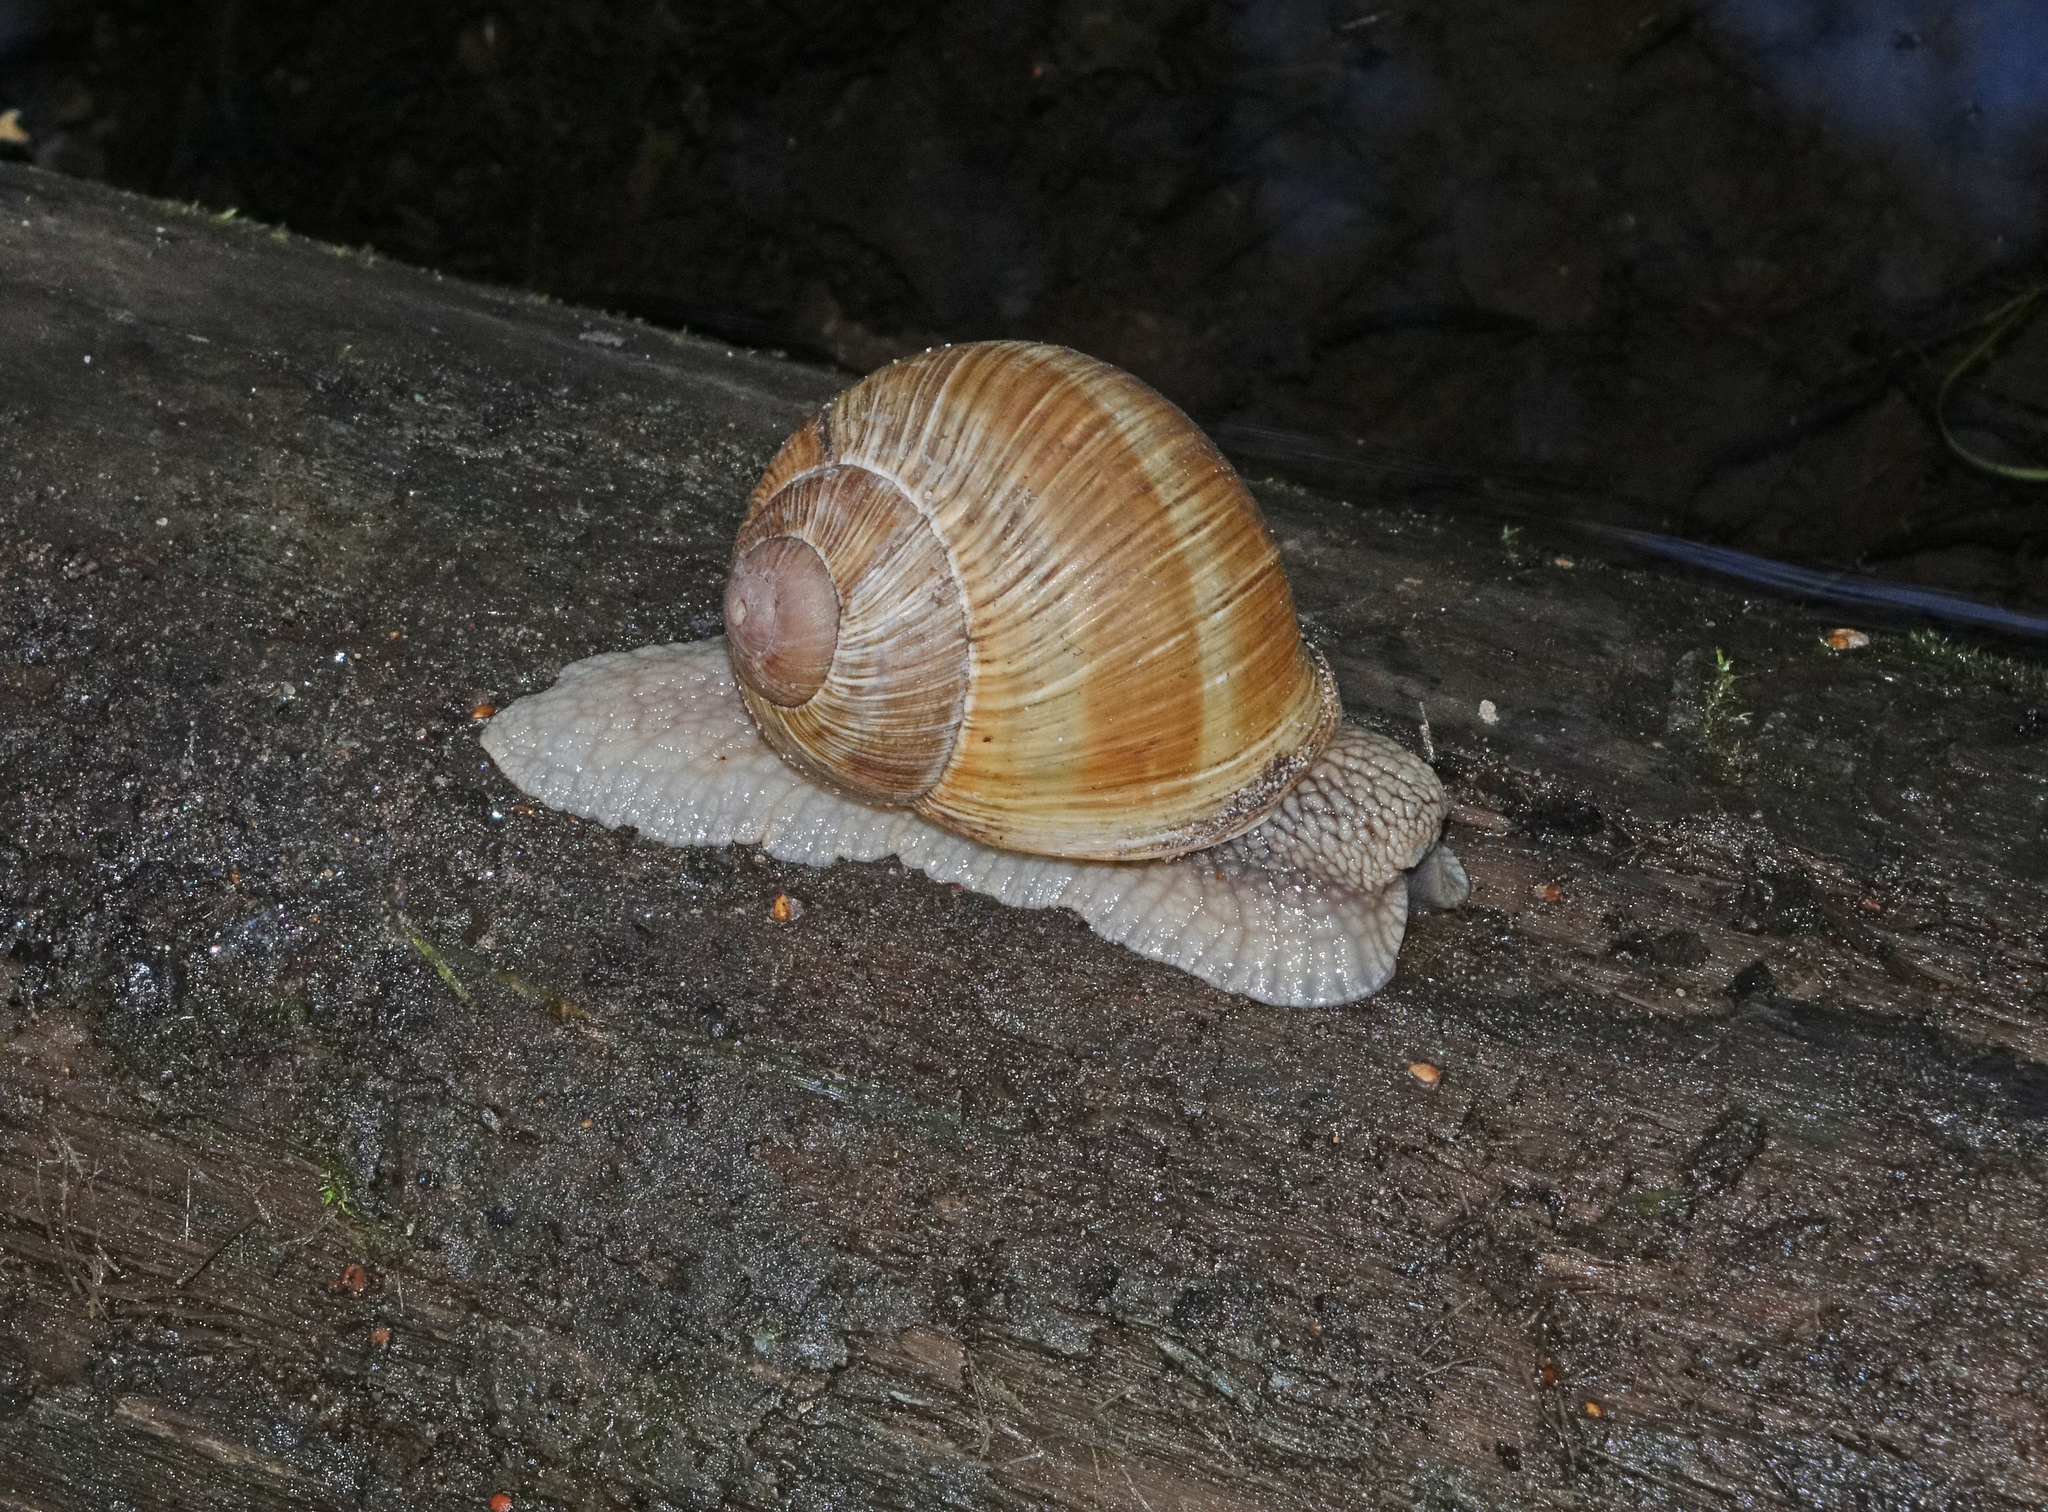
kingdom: Animalia
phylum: Mollusca
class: Gastropoda
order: Stylommatophora
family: Helicidae
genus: Helix
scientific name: Helix pomatia
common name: Roman snail
